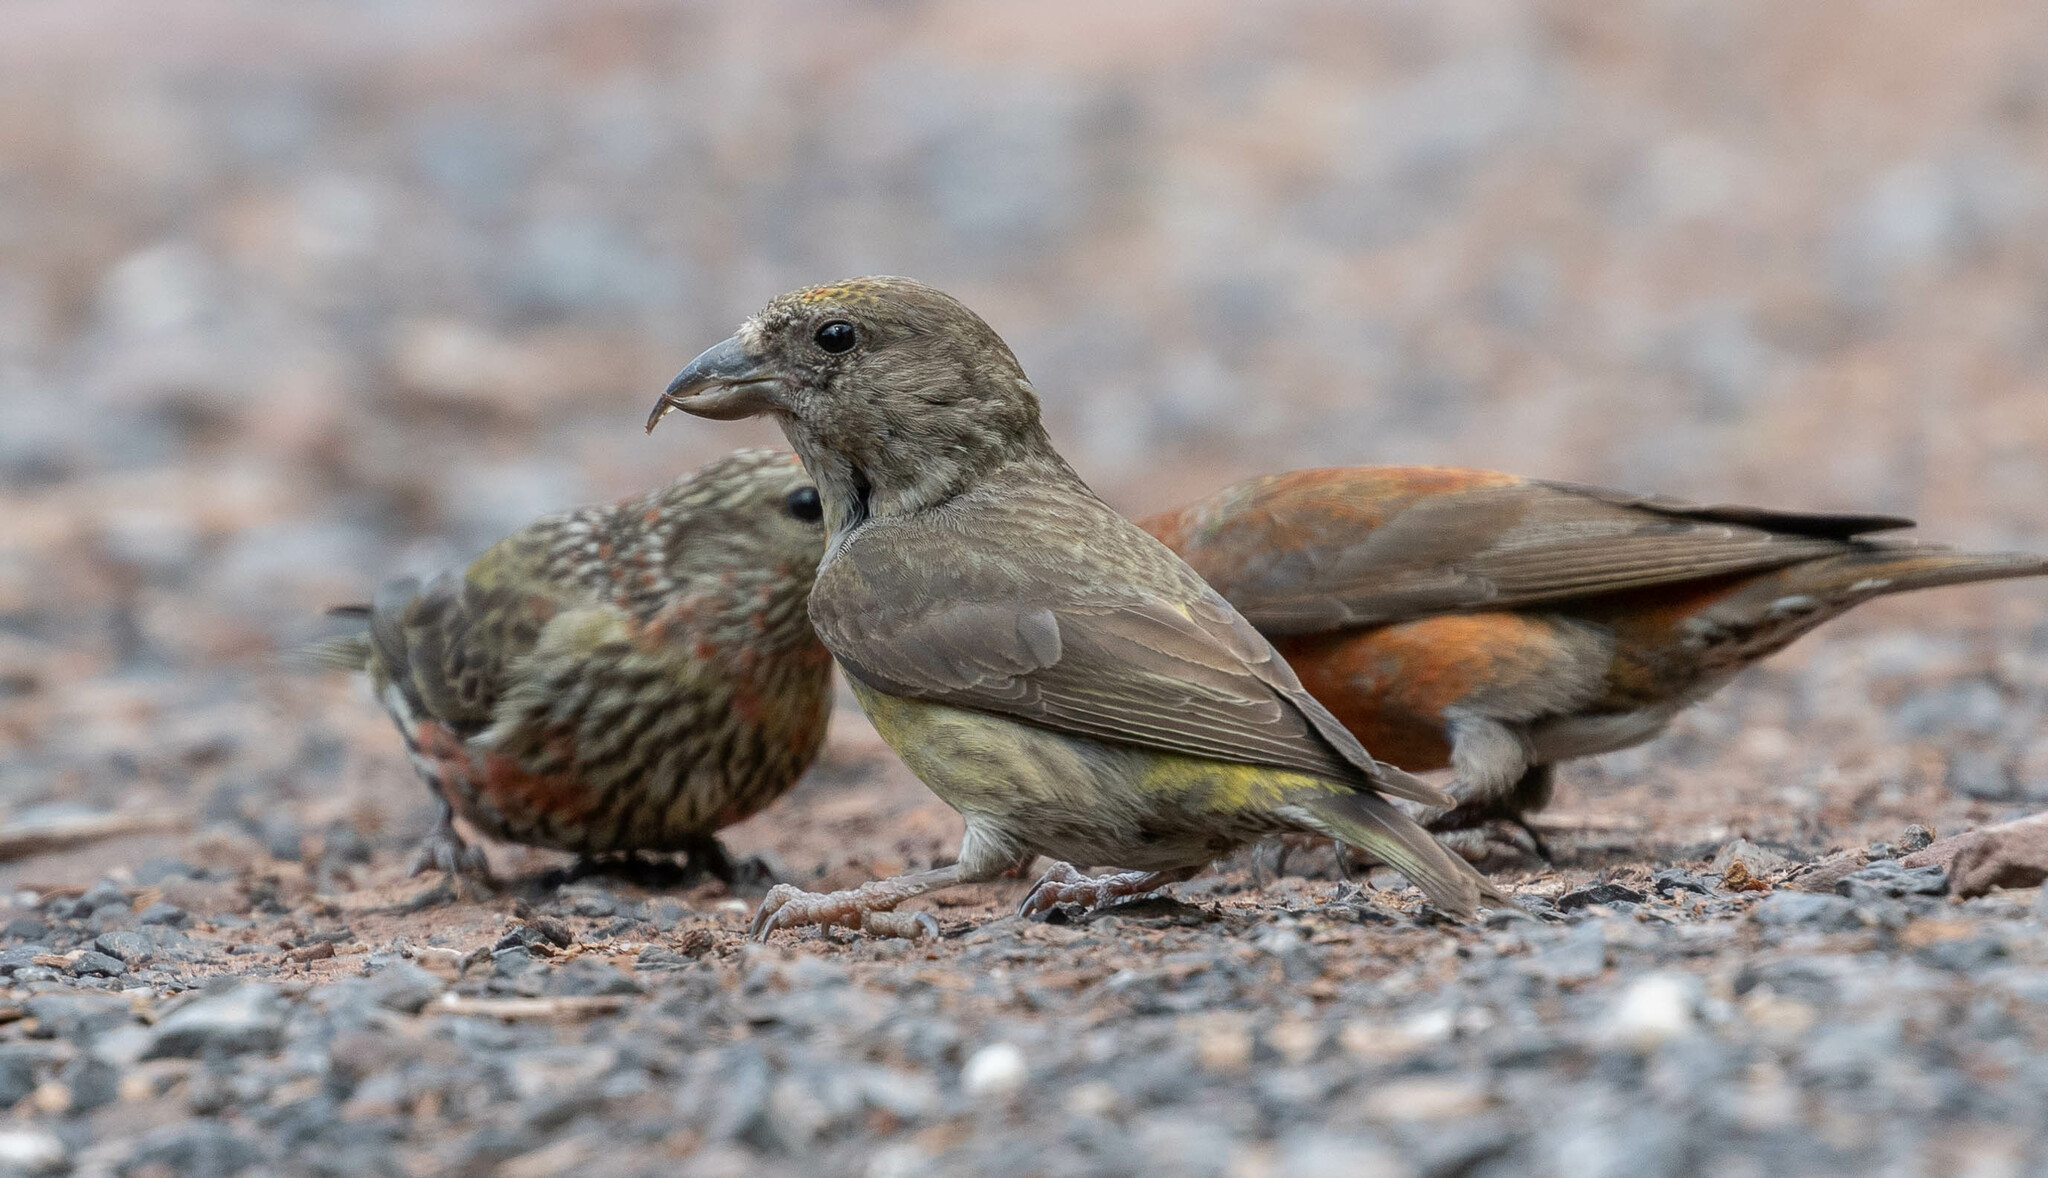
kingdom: Animalia
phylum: Chordata
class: Aves
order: Passeriformes
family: Fringillidae
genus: Loxia
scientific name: Loxia curvirostra
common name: Red crossbill
